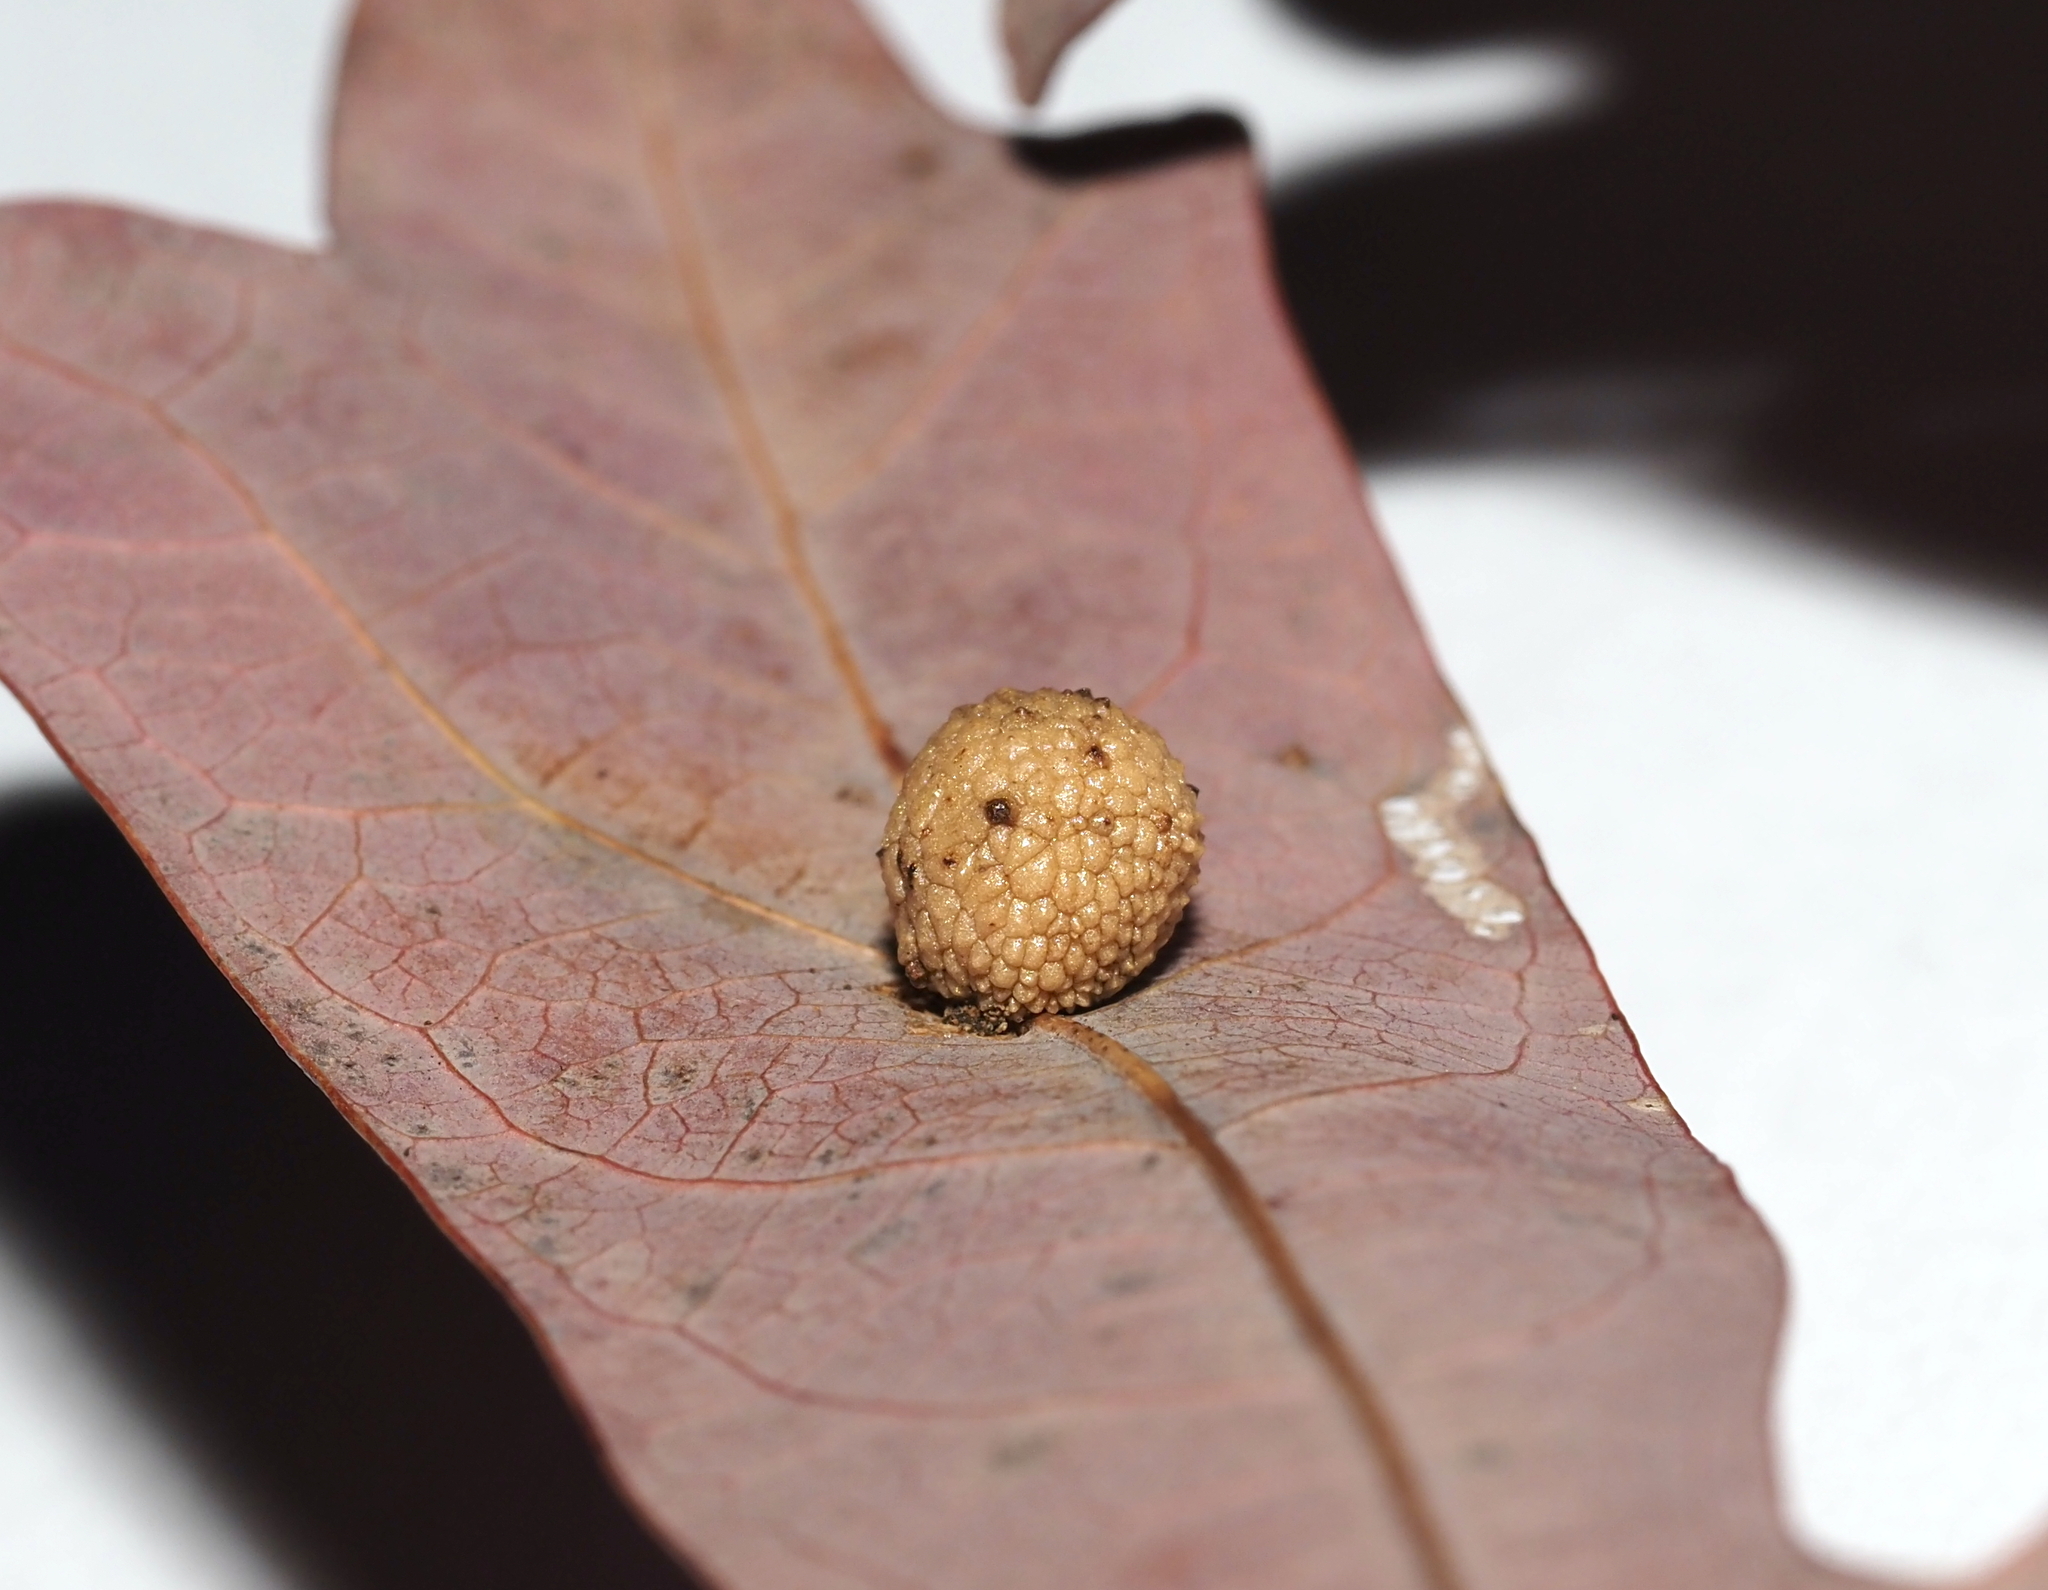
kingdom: Animalia
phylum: Arthropoda
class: Insecta
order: Hymenoptera
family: Cynipidae
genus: Acraspis
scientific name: Acraspis
